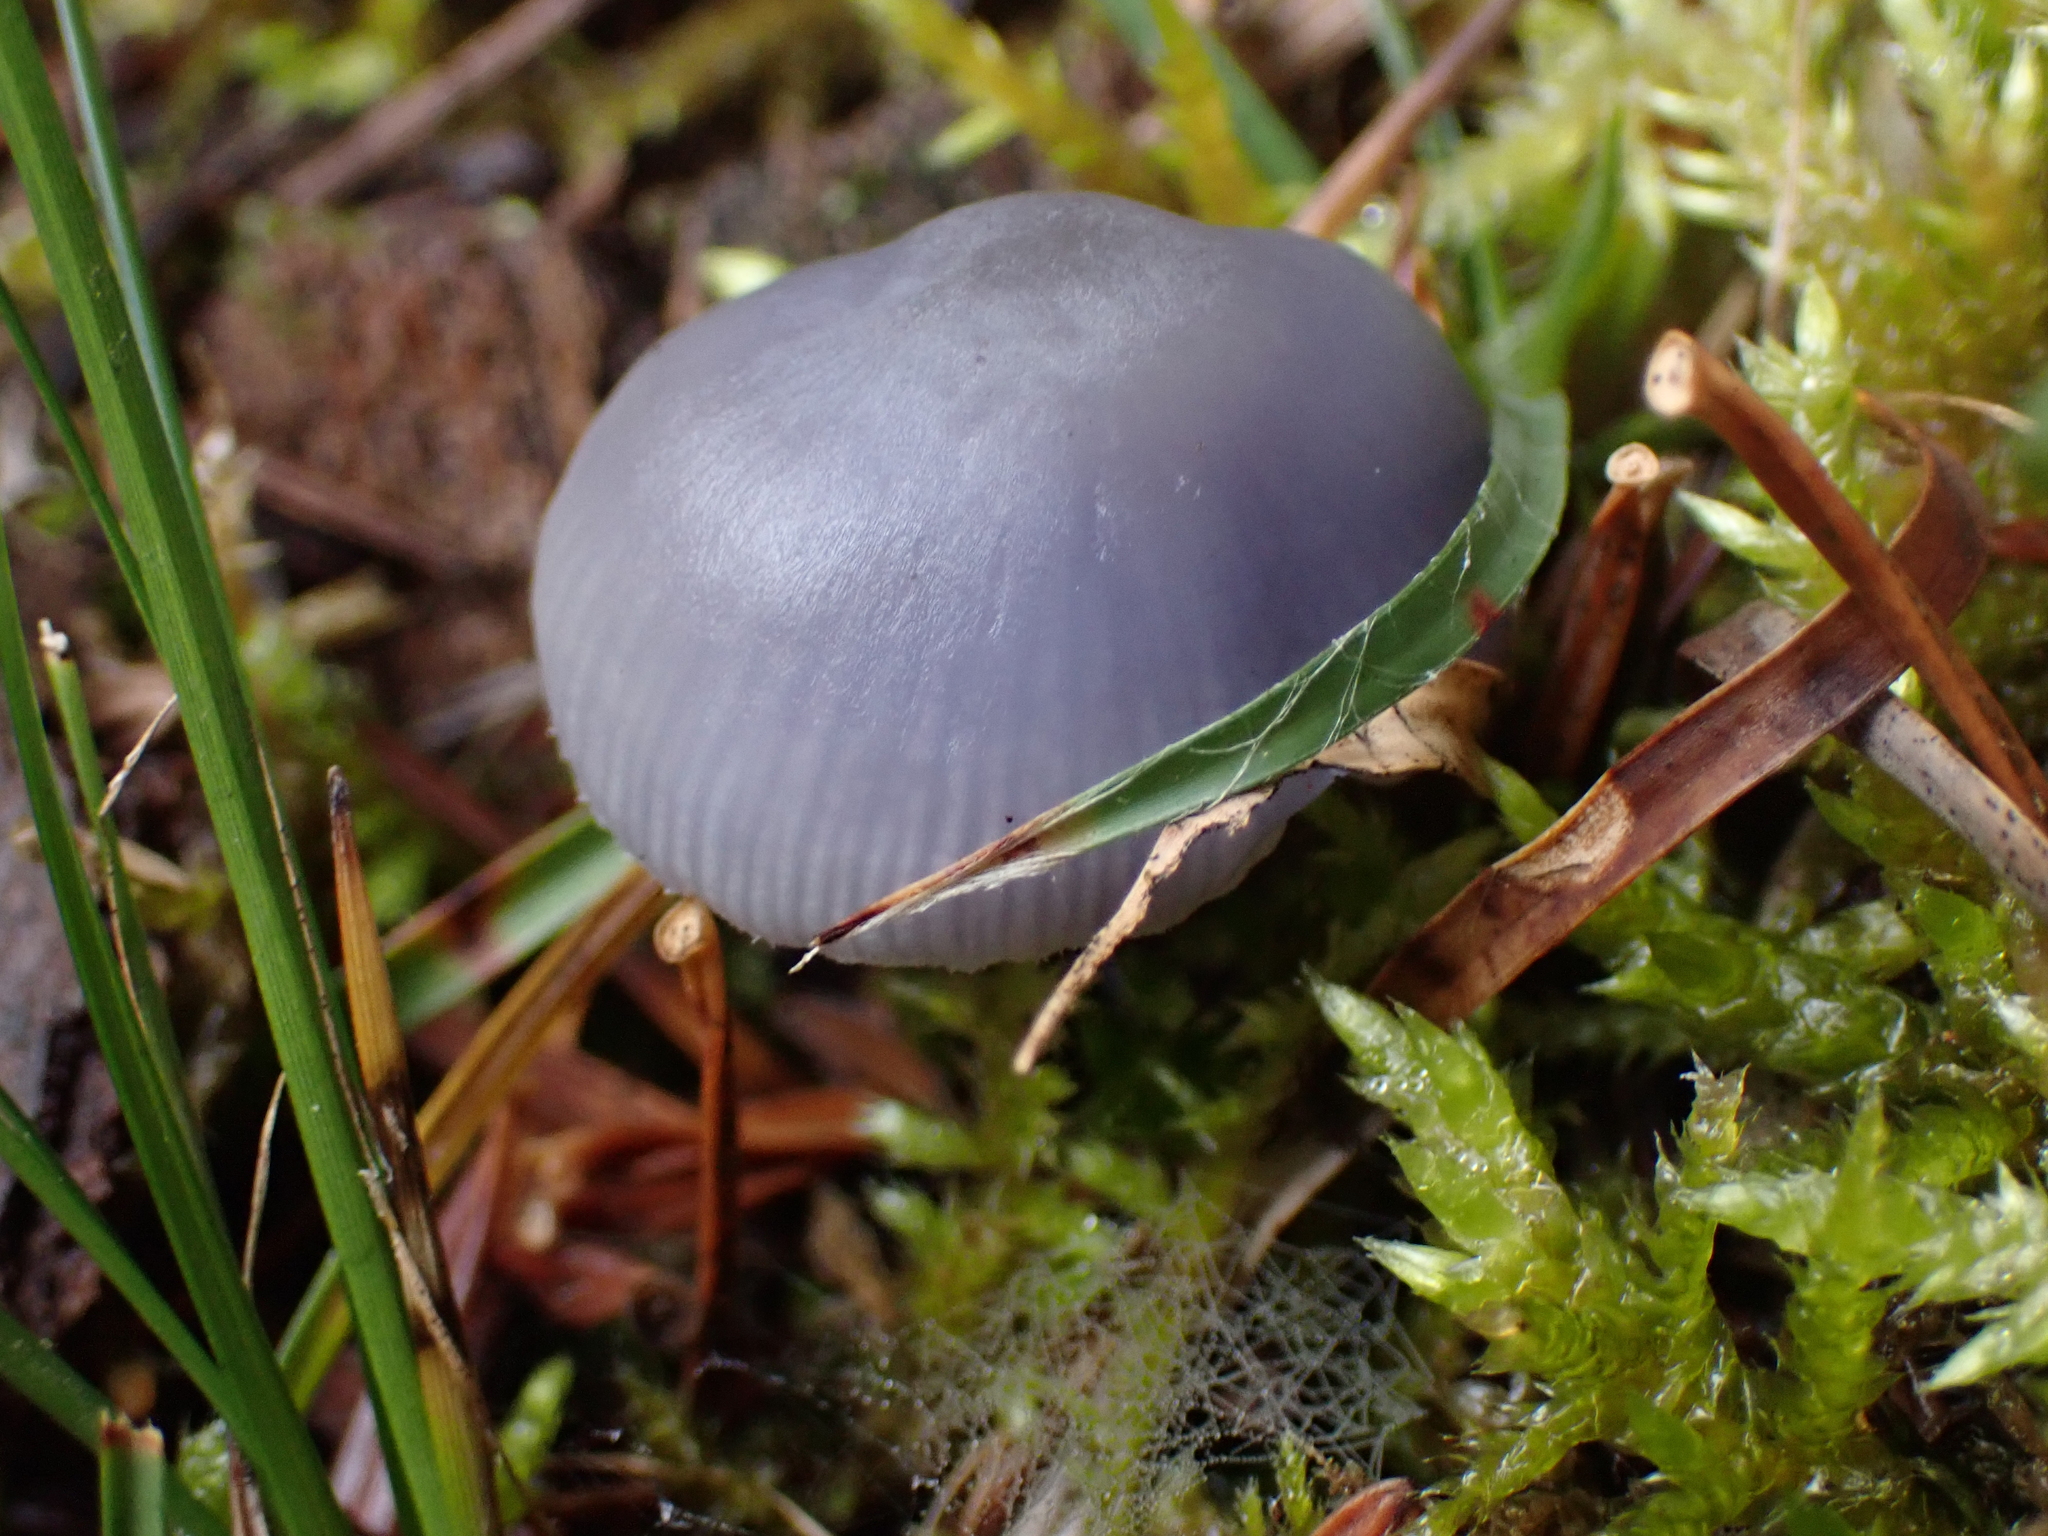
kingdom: Fungi
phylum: Basidiomycota
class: Agaricomycetes
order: Agaricales
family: Mycenaceae
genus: Mycena
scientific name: Mycena pura
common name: Lilac bonnet
